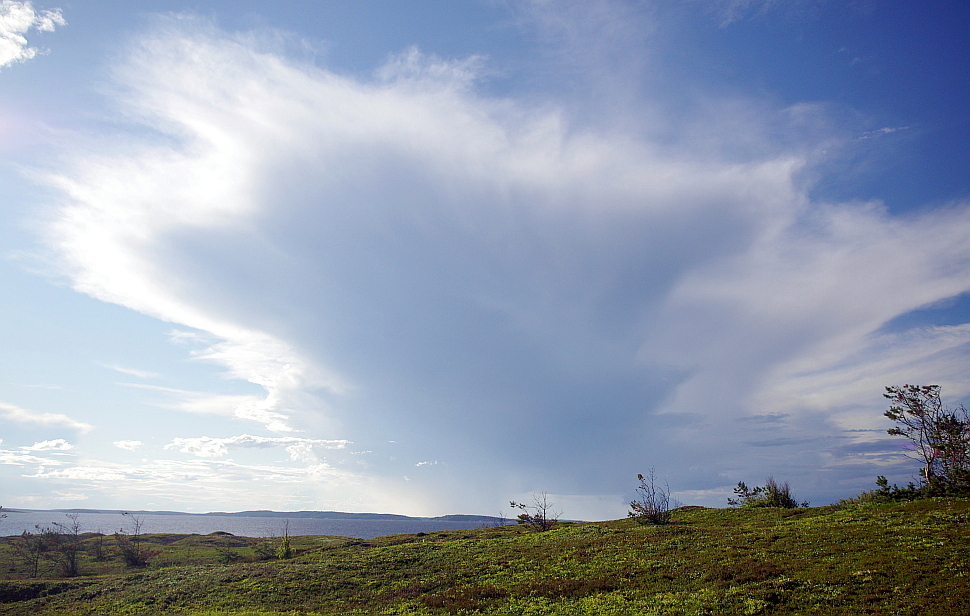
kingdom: Plantae
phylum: Tracheophyta
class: Pinopsida
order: Pinales
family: Pinaceae
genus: Pinus
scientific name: Pinus sylvestris
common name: Scots pine
